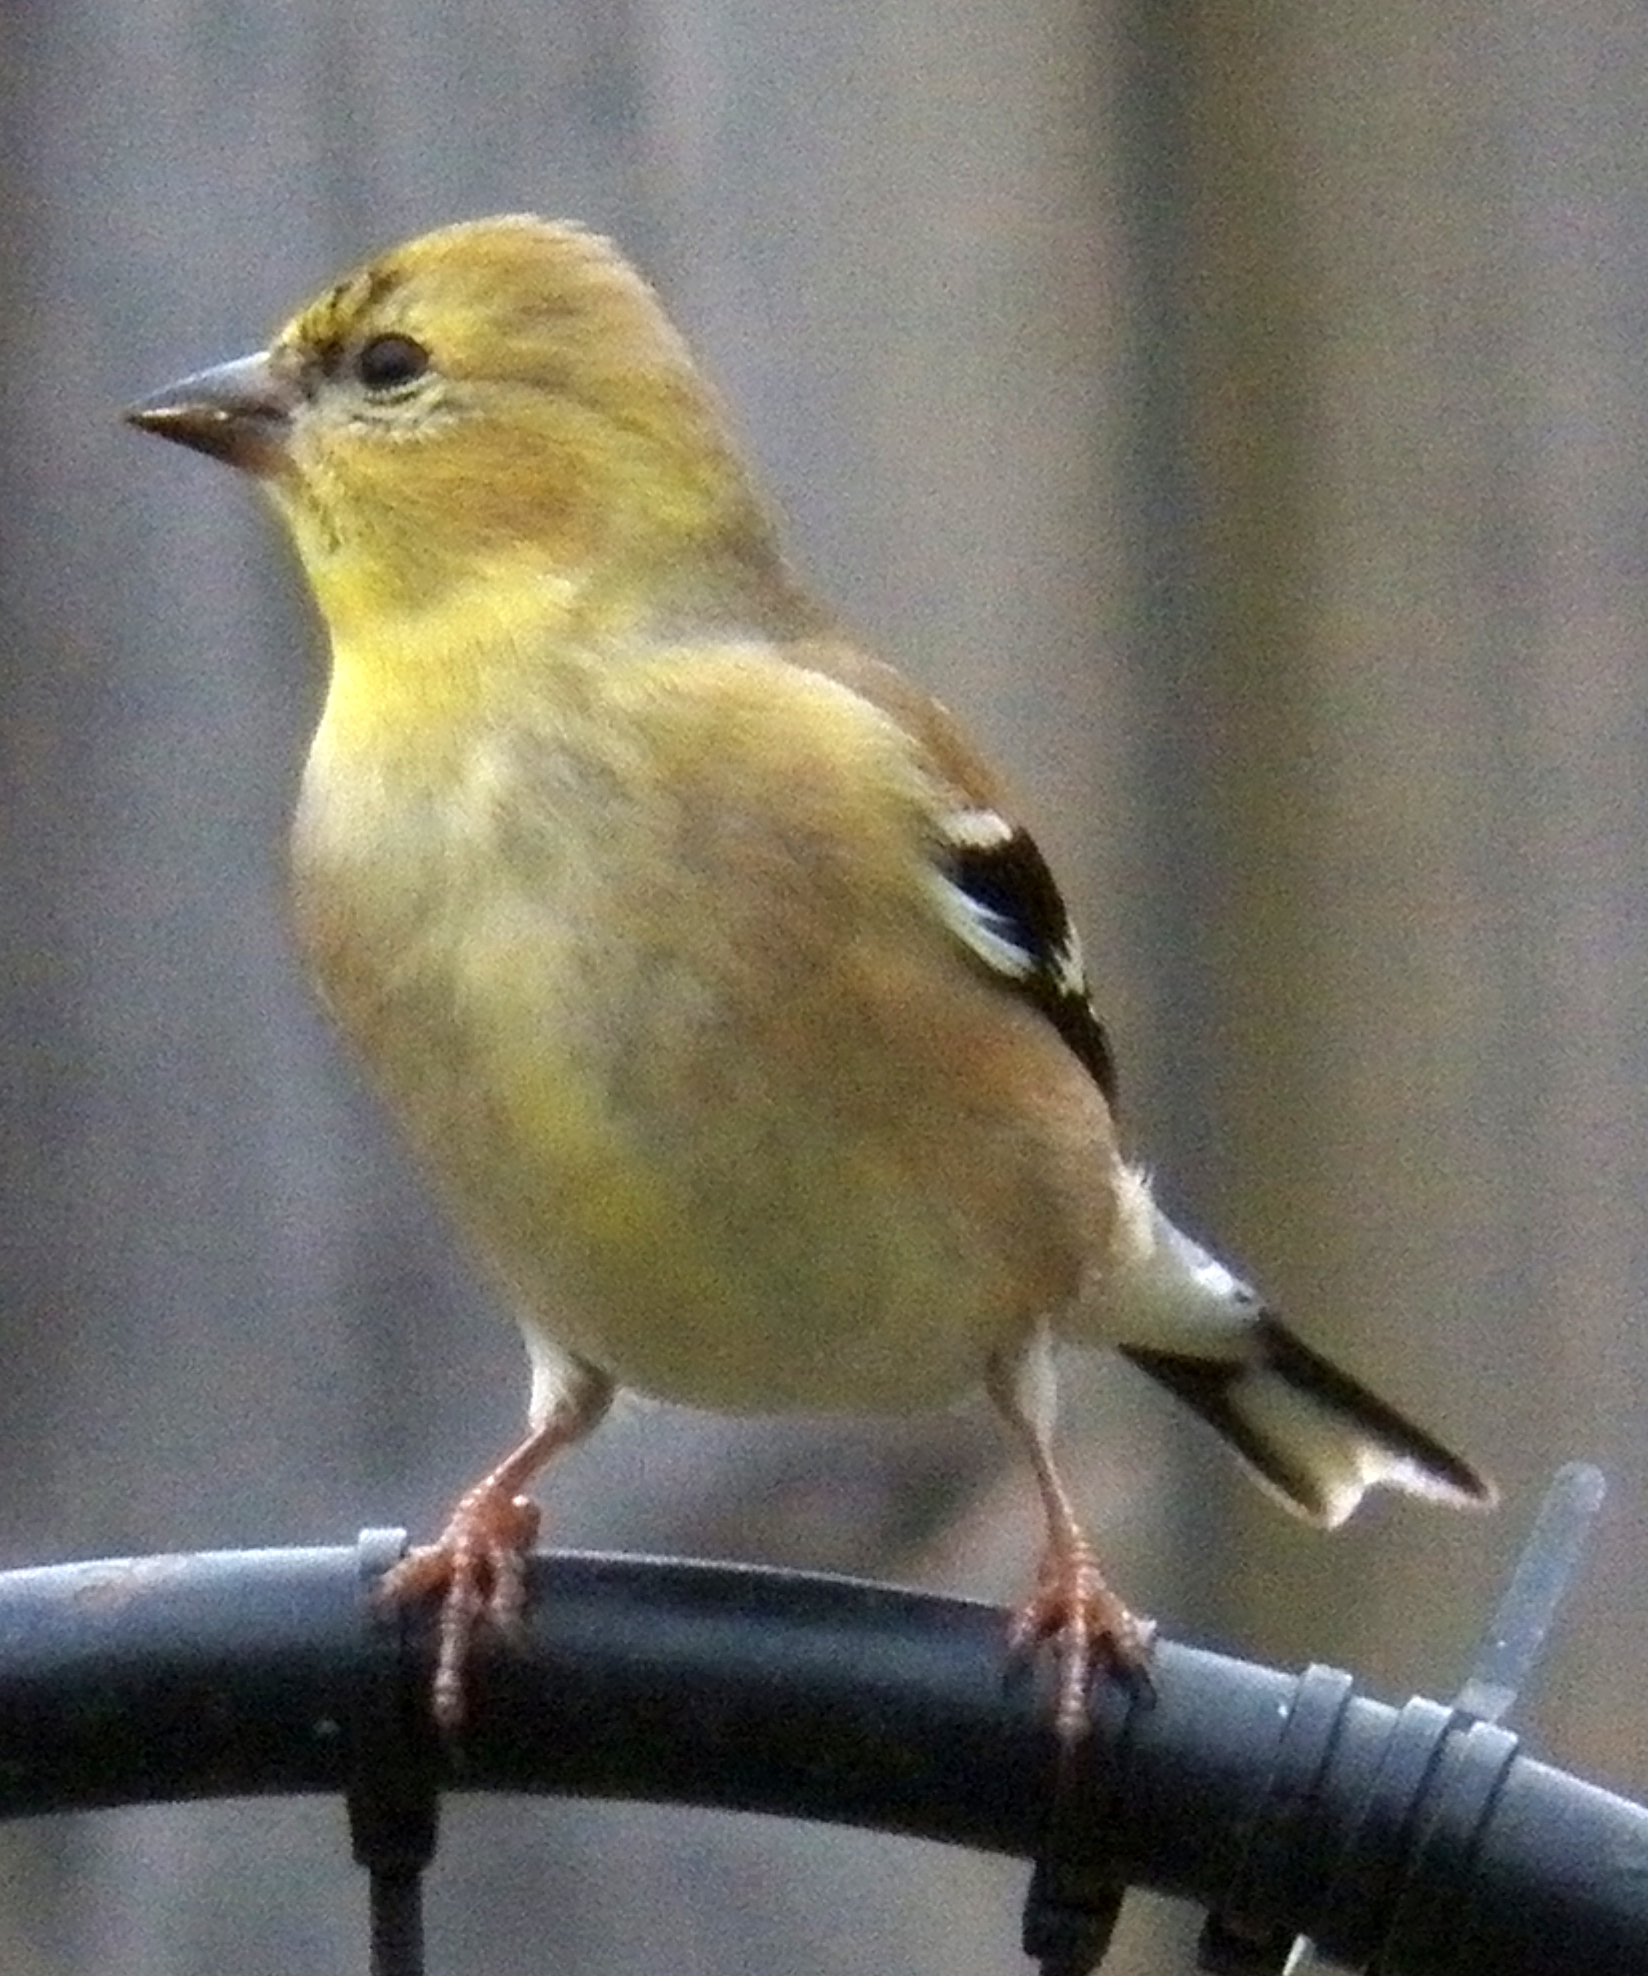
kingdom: Animalia
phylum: Chordata
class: Aves
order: Passeriformes
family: Fringillidae
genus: Spinus
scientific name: Spinus tristis
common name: American goldfinch
